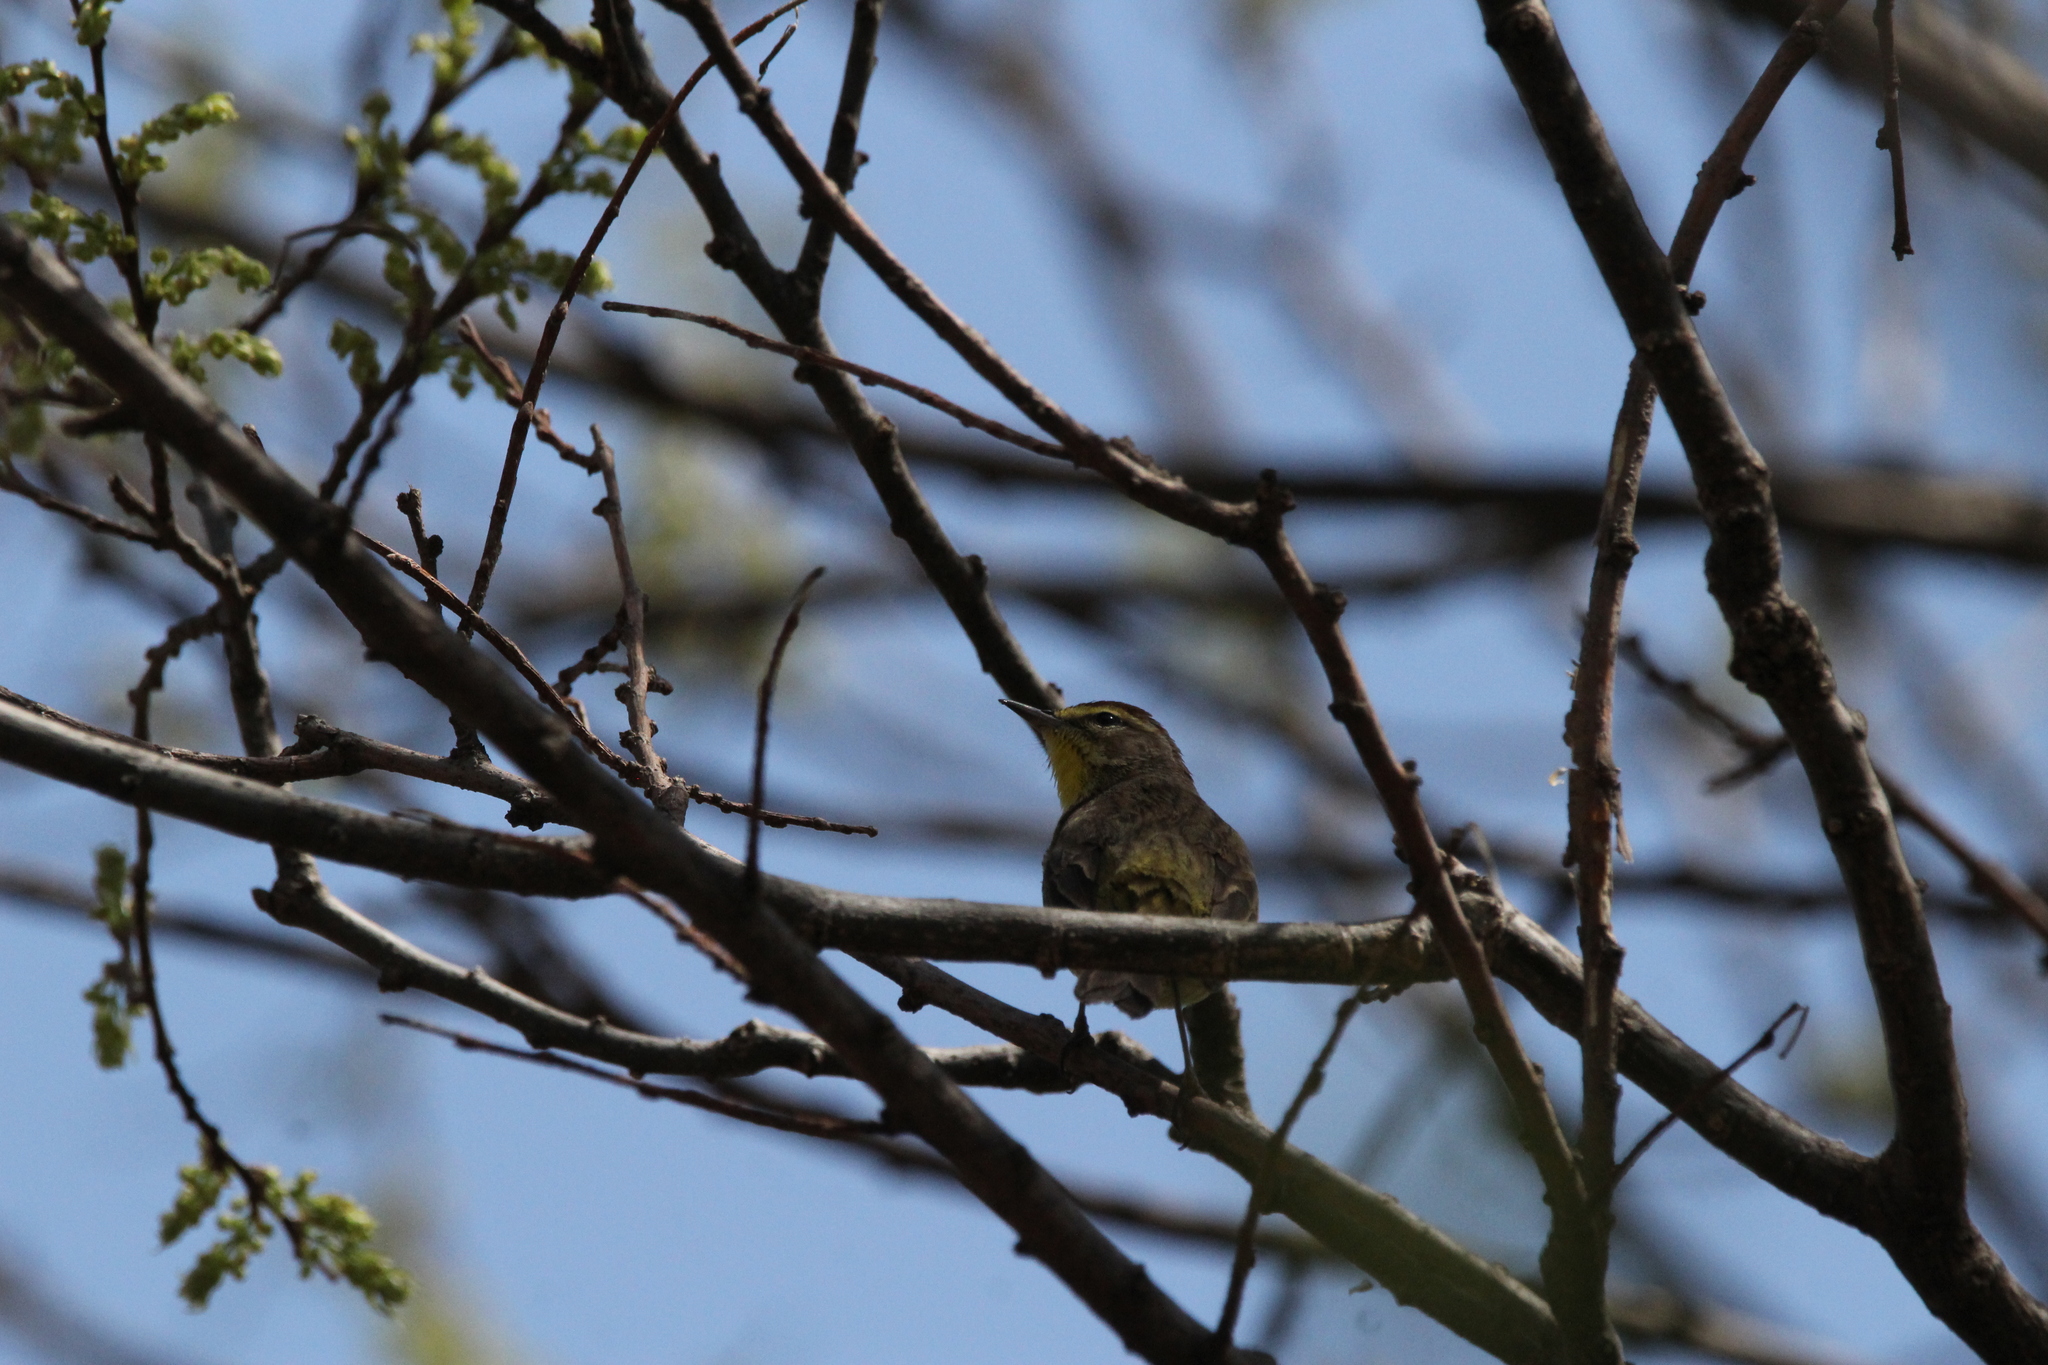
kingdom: Animalia
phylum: Chordata
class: Aves
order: Passeriformes
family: Parulidae
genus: Setophaga
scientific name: Setophaga palmarum
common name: Palm warbler
